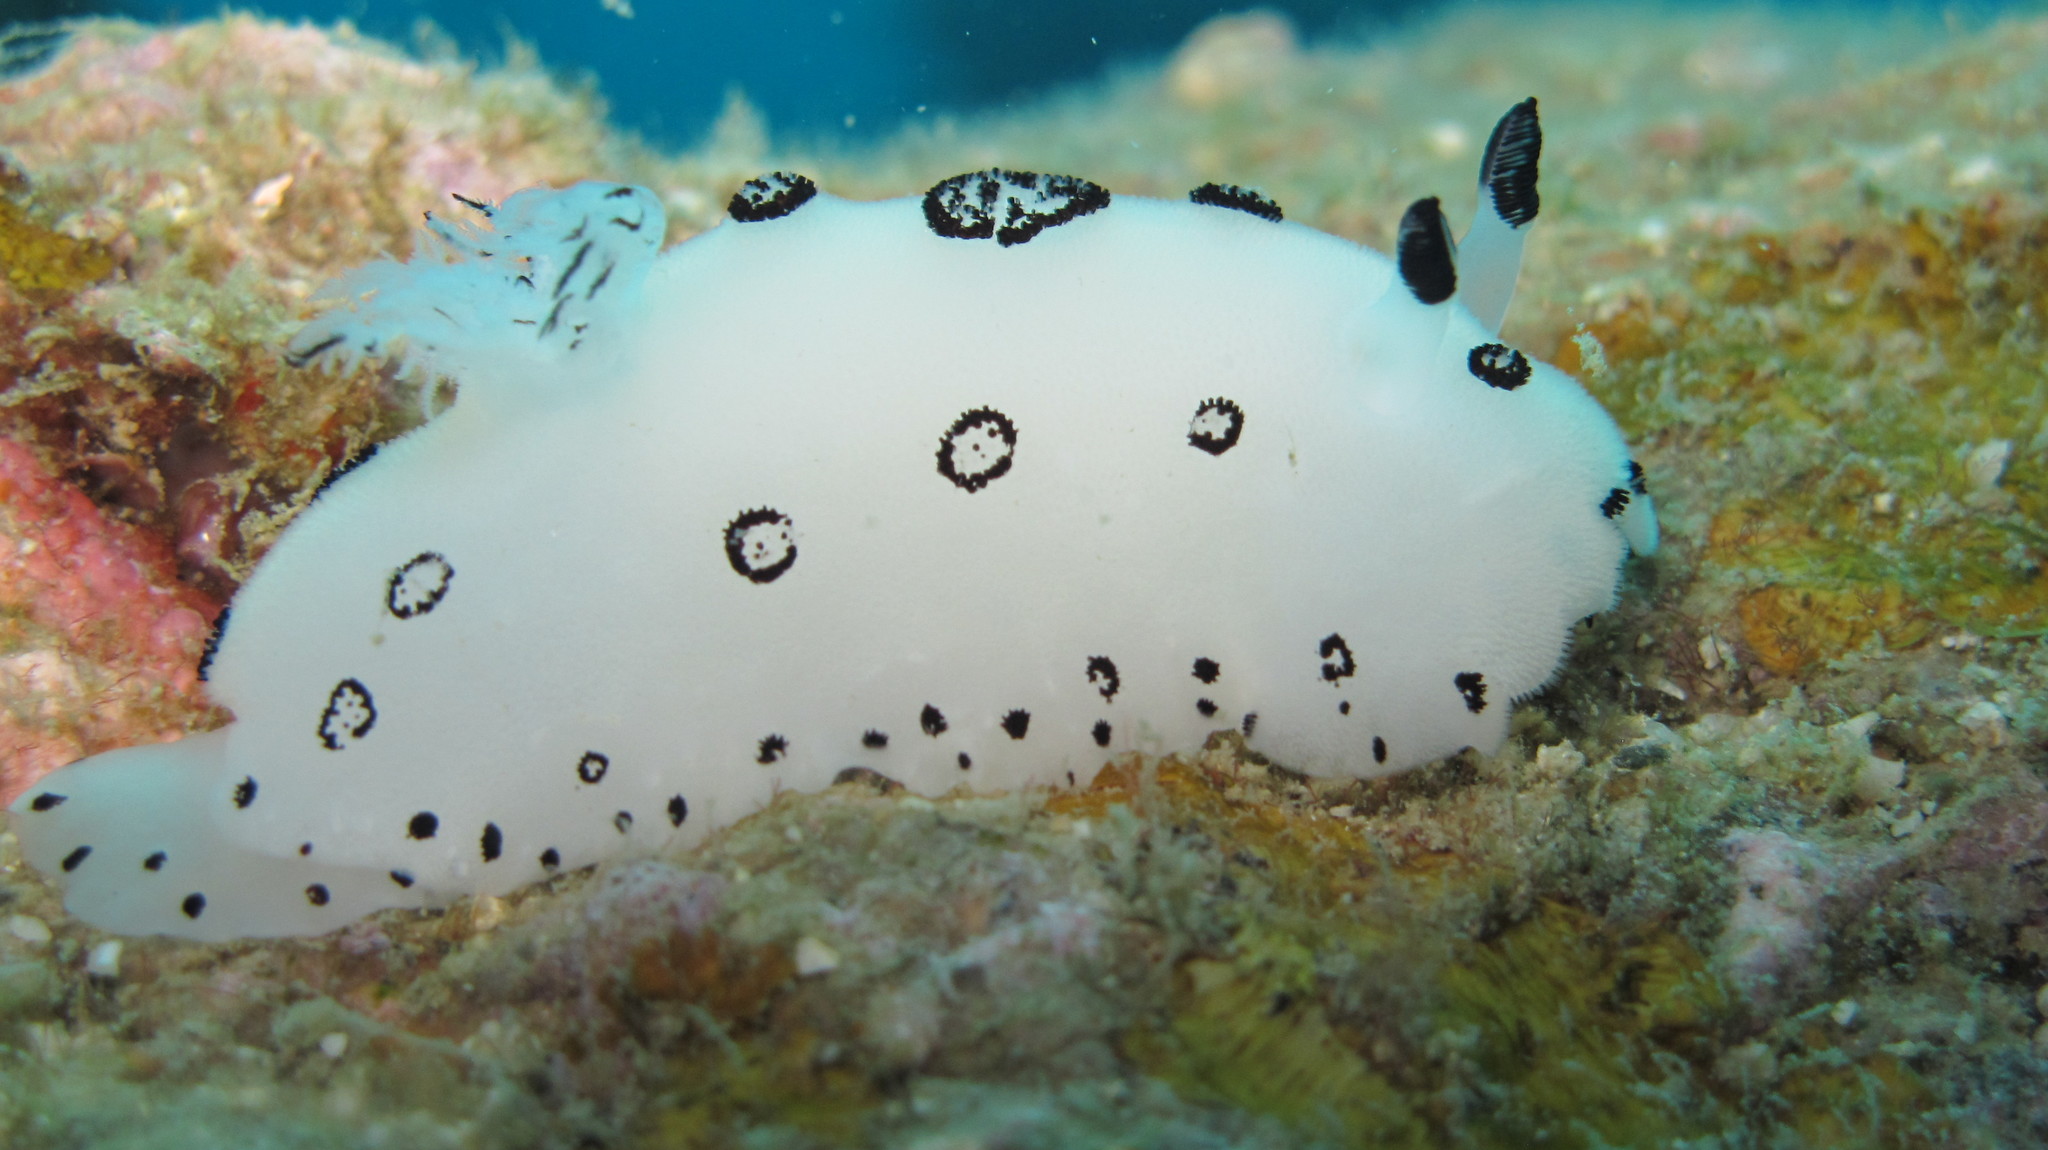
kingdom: Animalia
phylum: Mollusca
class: Gastropoda
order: Nudibranchia
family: Discodorididae
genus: Jorunna
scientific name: Jorunna funebris
